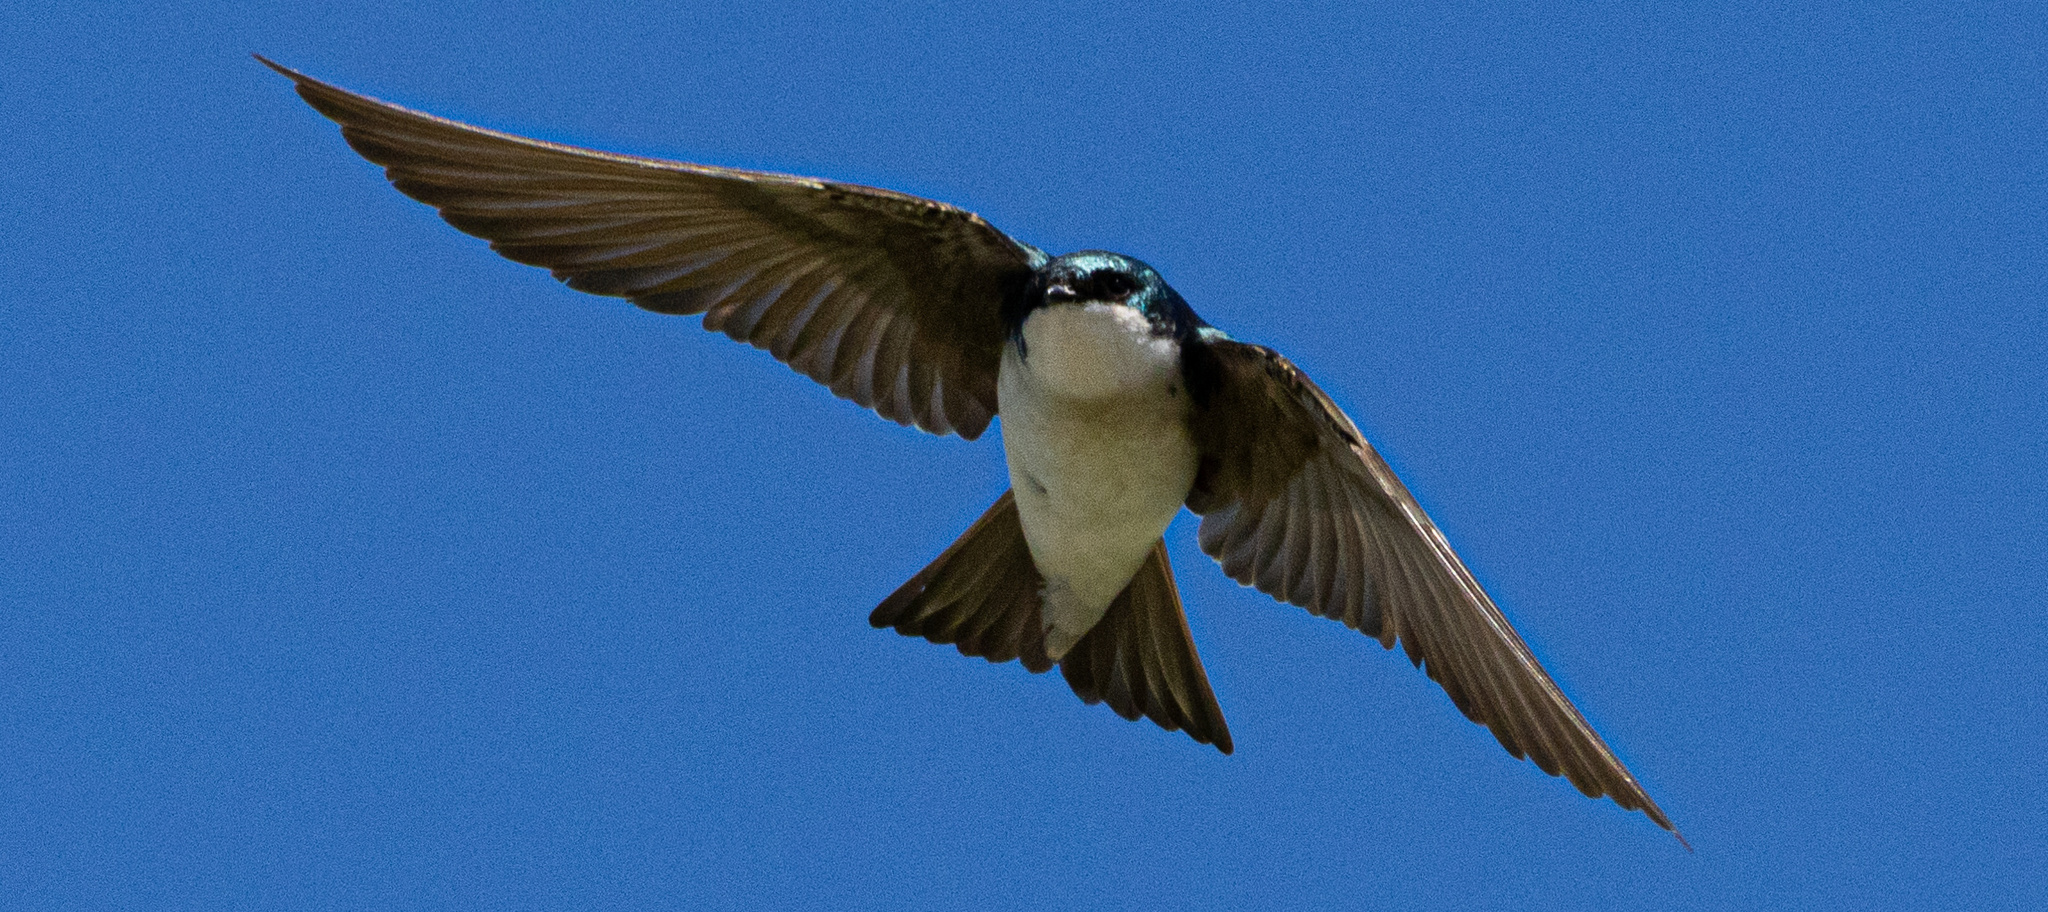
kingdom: Animalia
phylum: Chordata
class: Aves
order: Passeriformes
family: Hirundinidae
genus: Tachycineta
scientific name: Tachycineta bicolor
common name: Tree swallow
